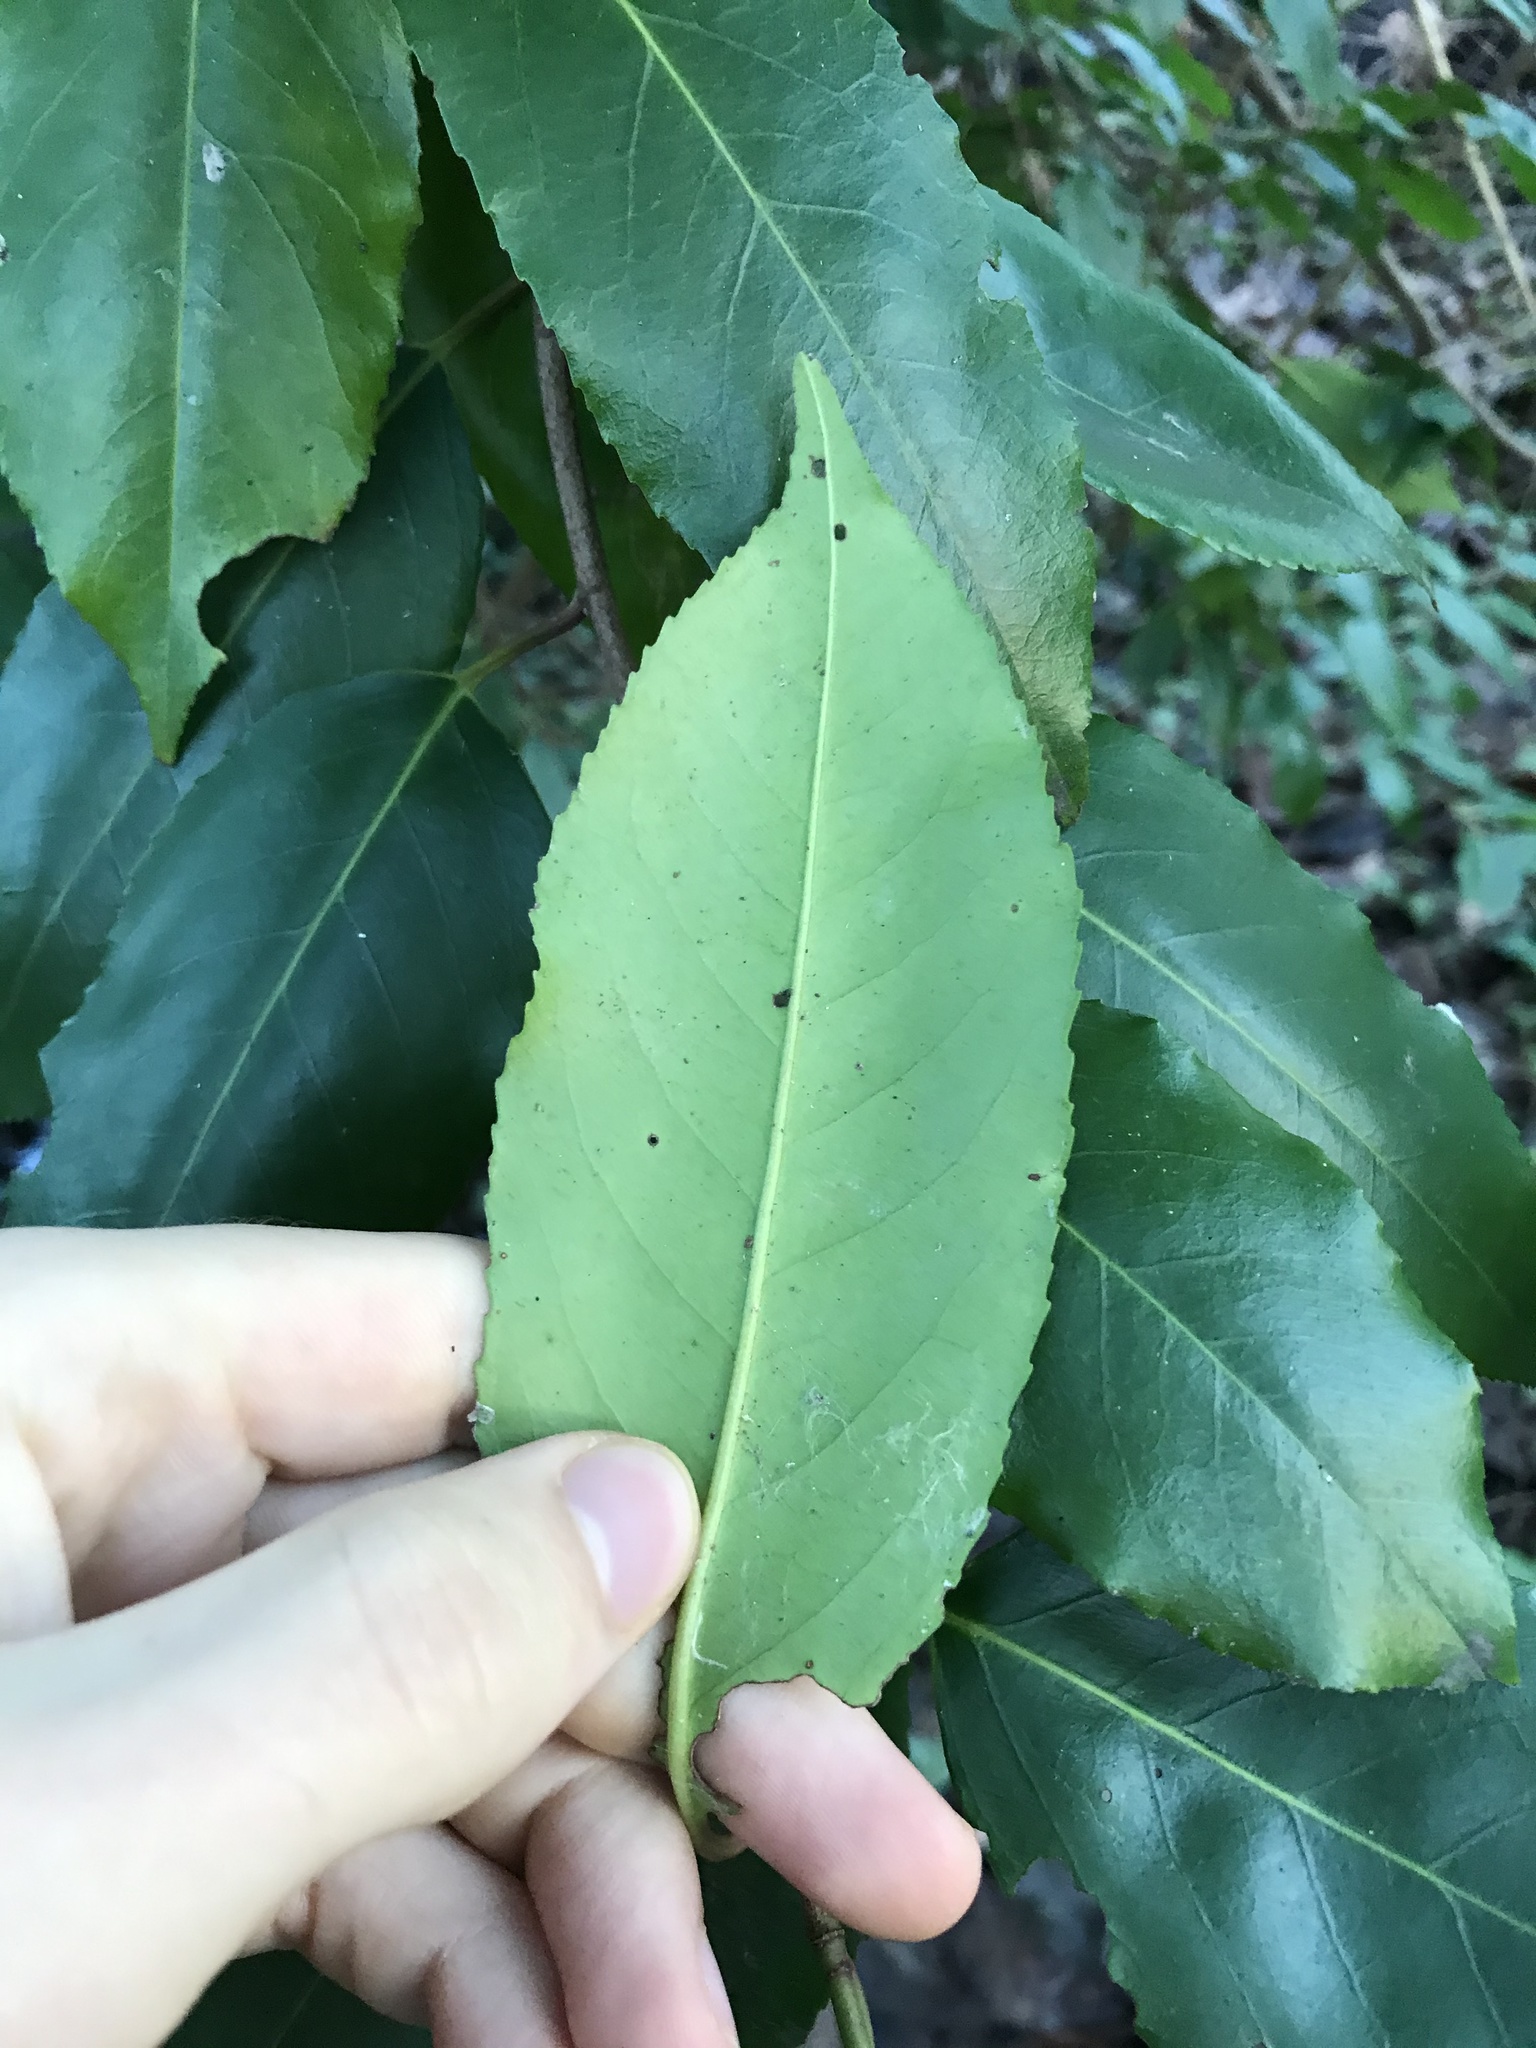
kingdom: Plantae
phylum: Tracheophyta
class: Magnoliopsida
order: Rosales
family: Rosaceae
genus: Prunus
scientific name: Prunus lusitanica
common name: Portugal laurel
